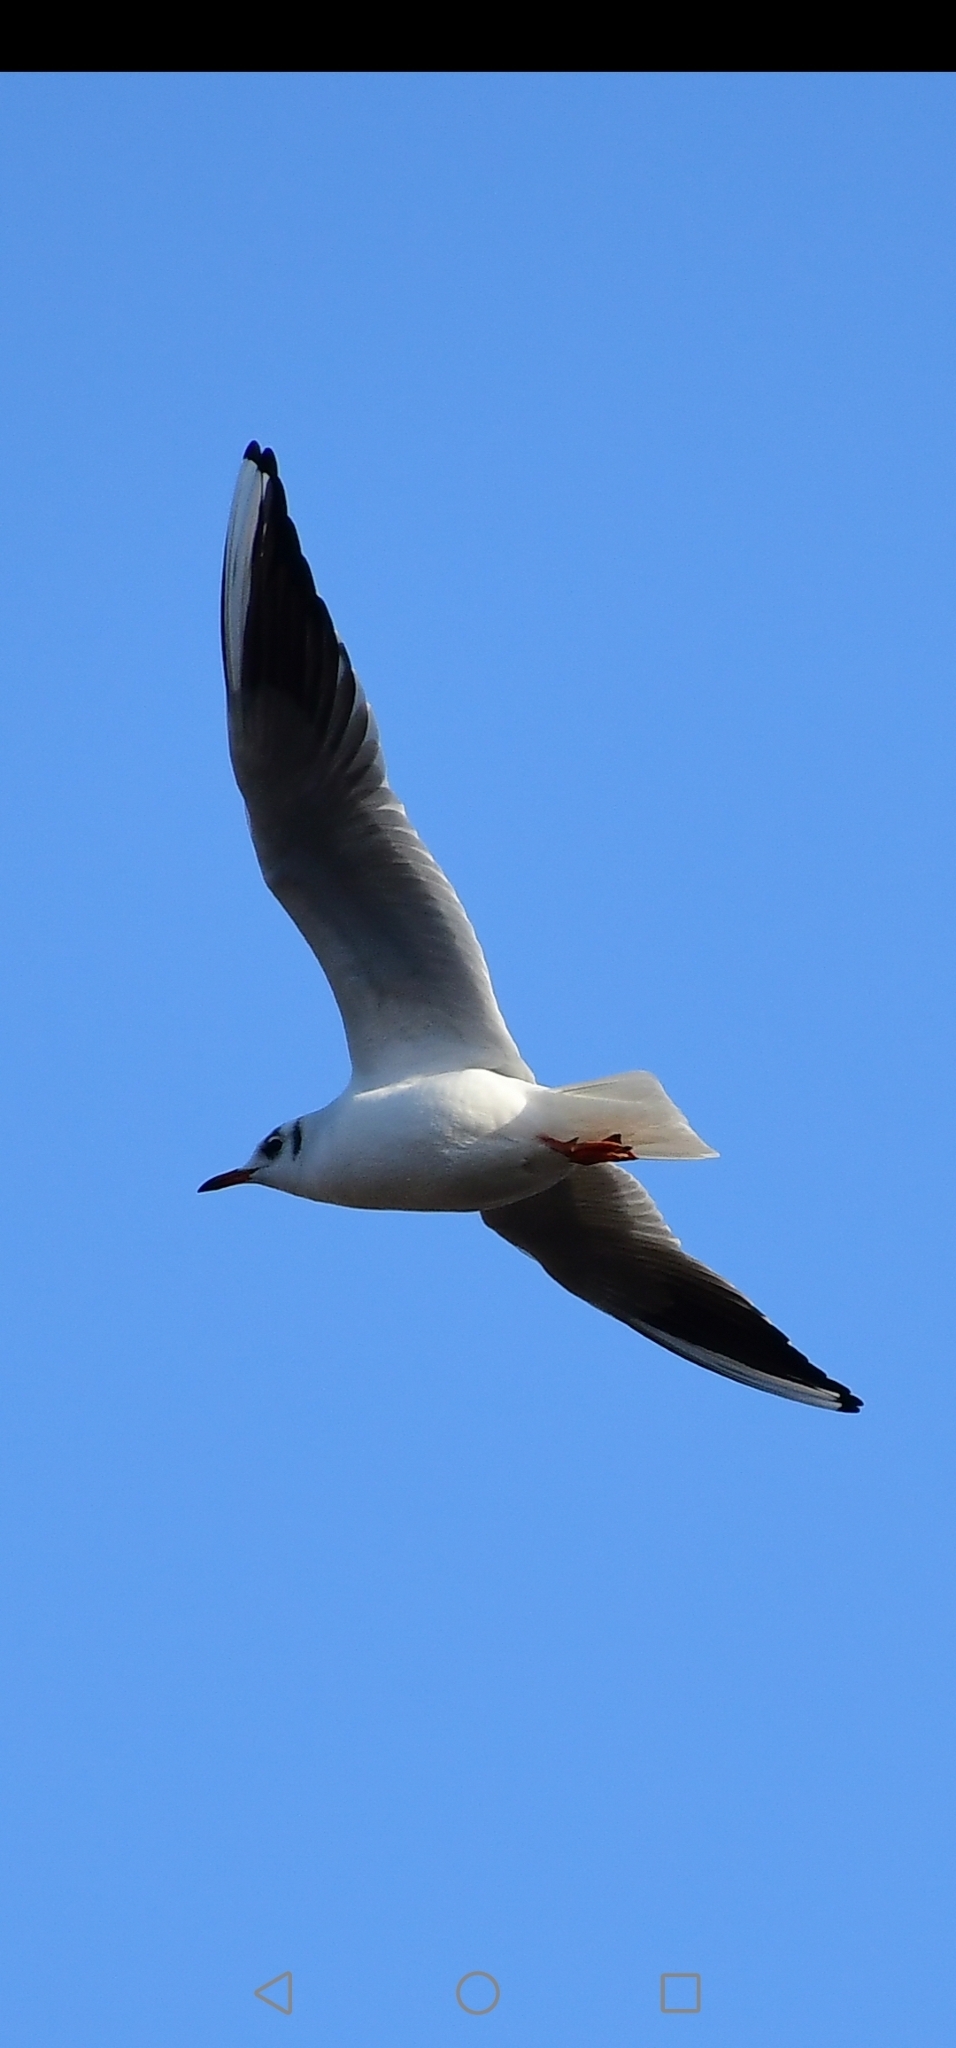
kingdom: Animalia
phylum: Chordata
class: Aves
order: Charadriiformes
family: Laridae
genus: Chroicocephalus
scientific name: Chroicocephalus ridibundus
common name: Black-headed gull
